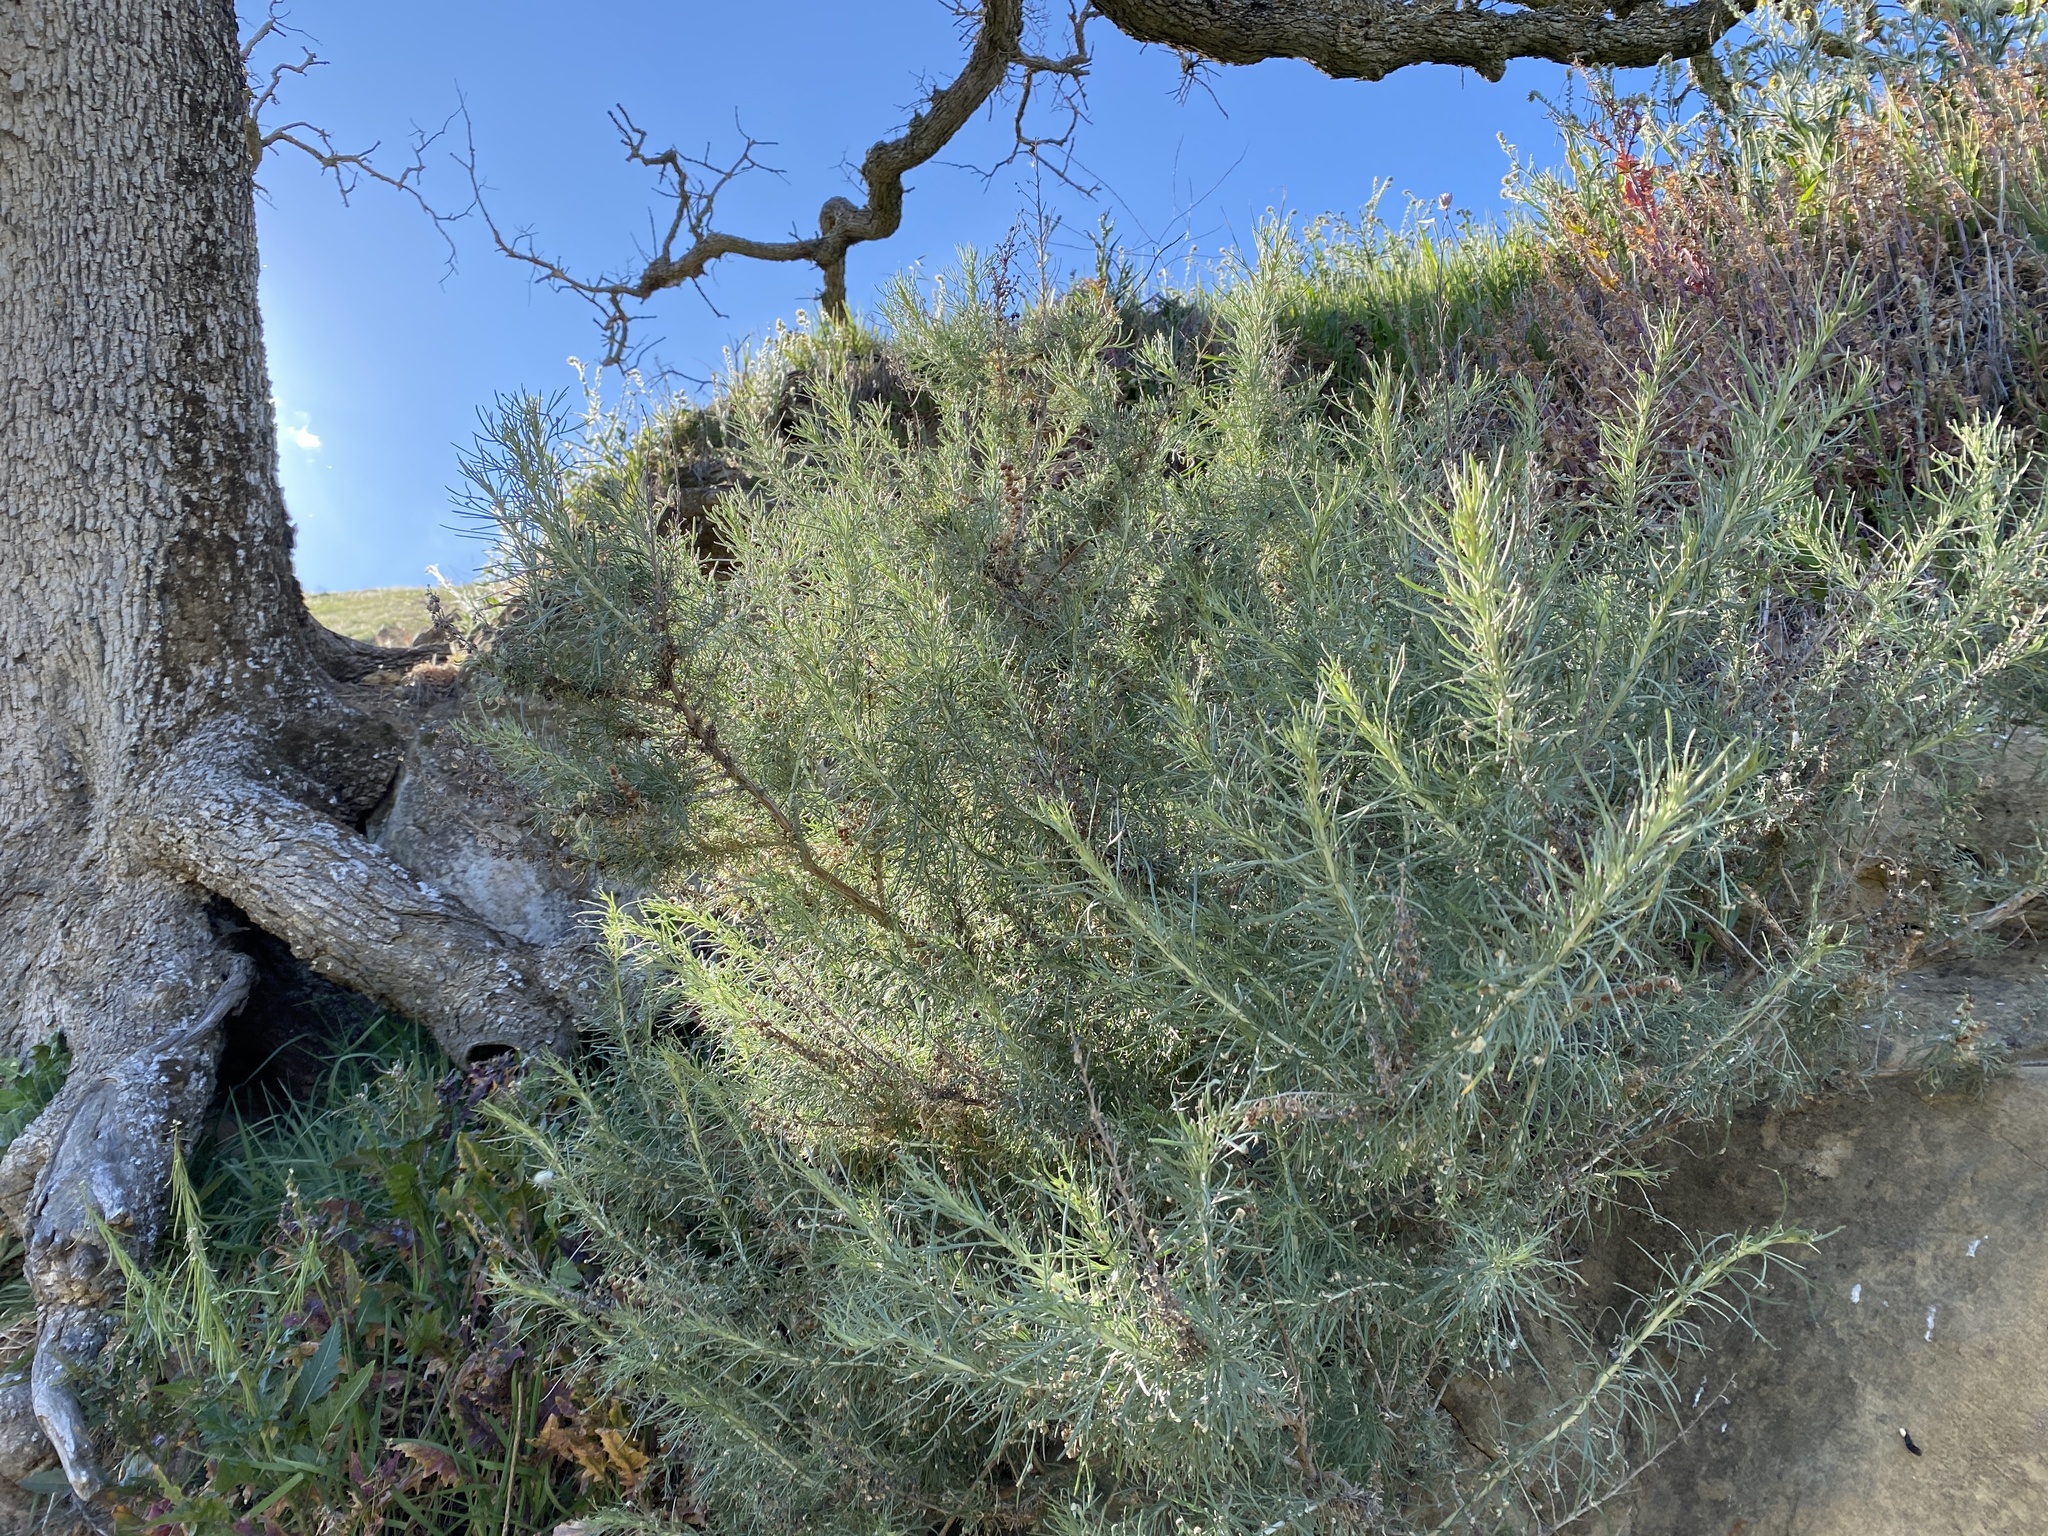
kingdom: Plantae
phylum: Tracheophyta
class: Magnoliopsida
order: Asterales
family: Asteraceae
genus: Artemisia
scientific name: Artemisia californica
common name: California sagebrush
